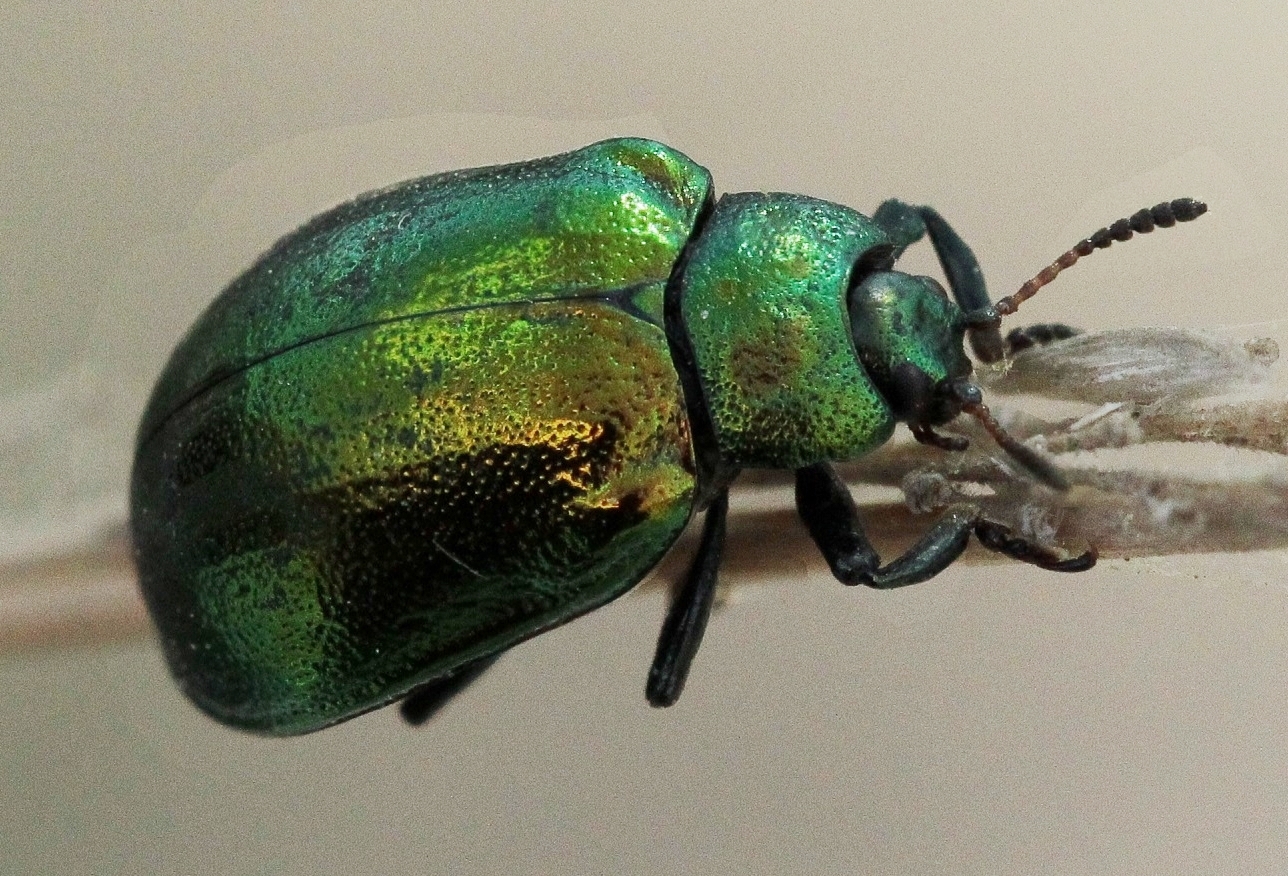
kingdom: Animalia
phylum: Arthropoda
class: Insecta
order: Coleoptera
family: Chrysomelidae
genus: Plagiosterna
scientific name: Plagiosterna aenea
